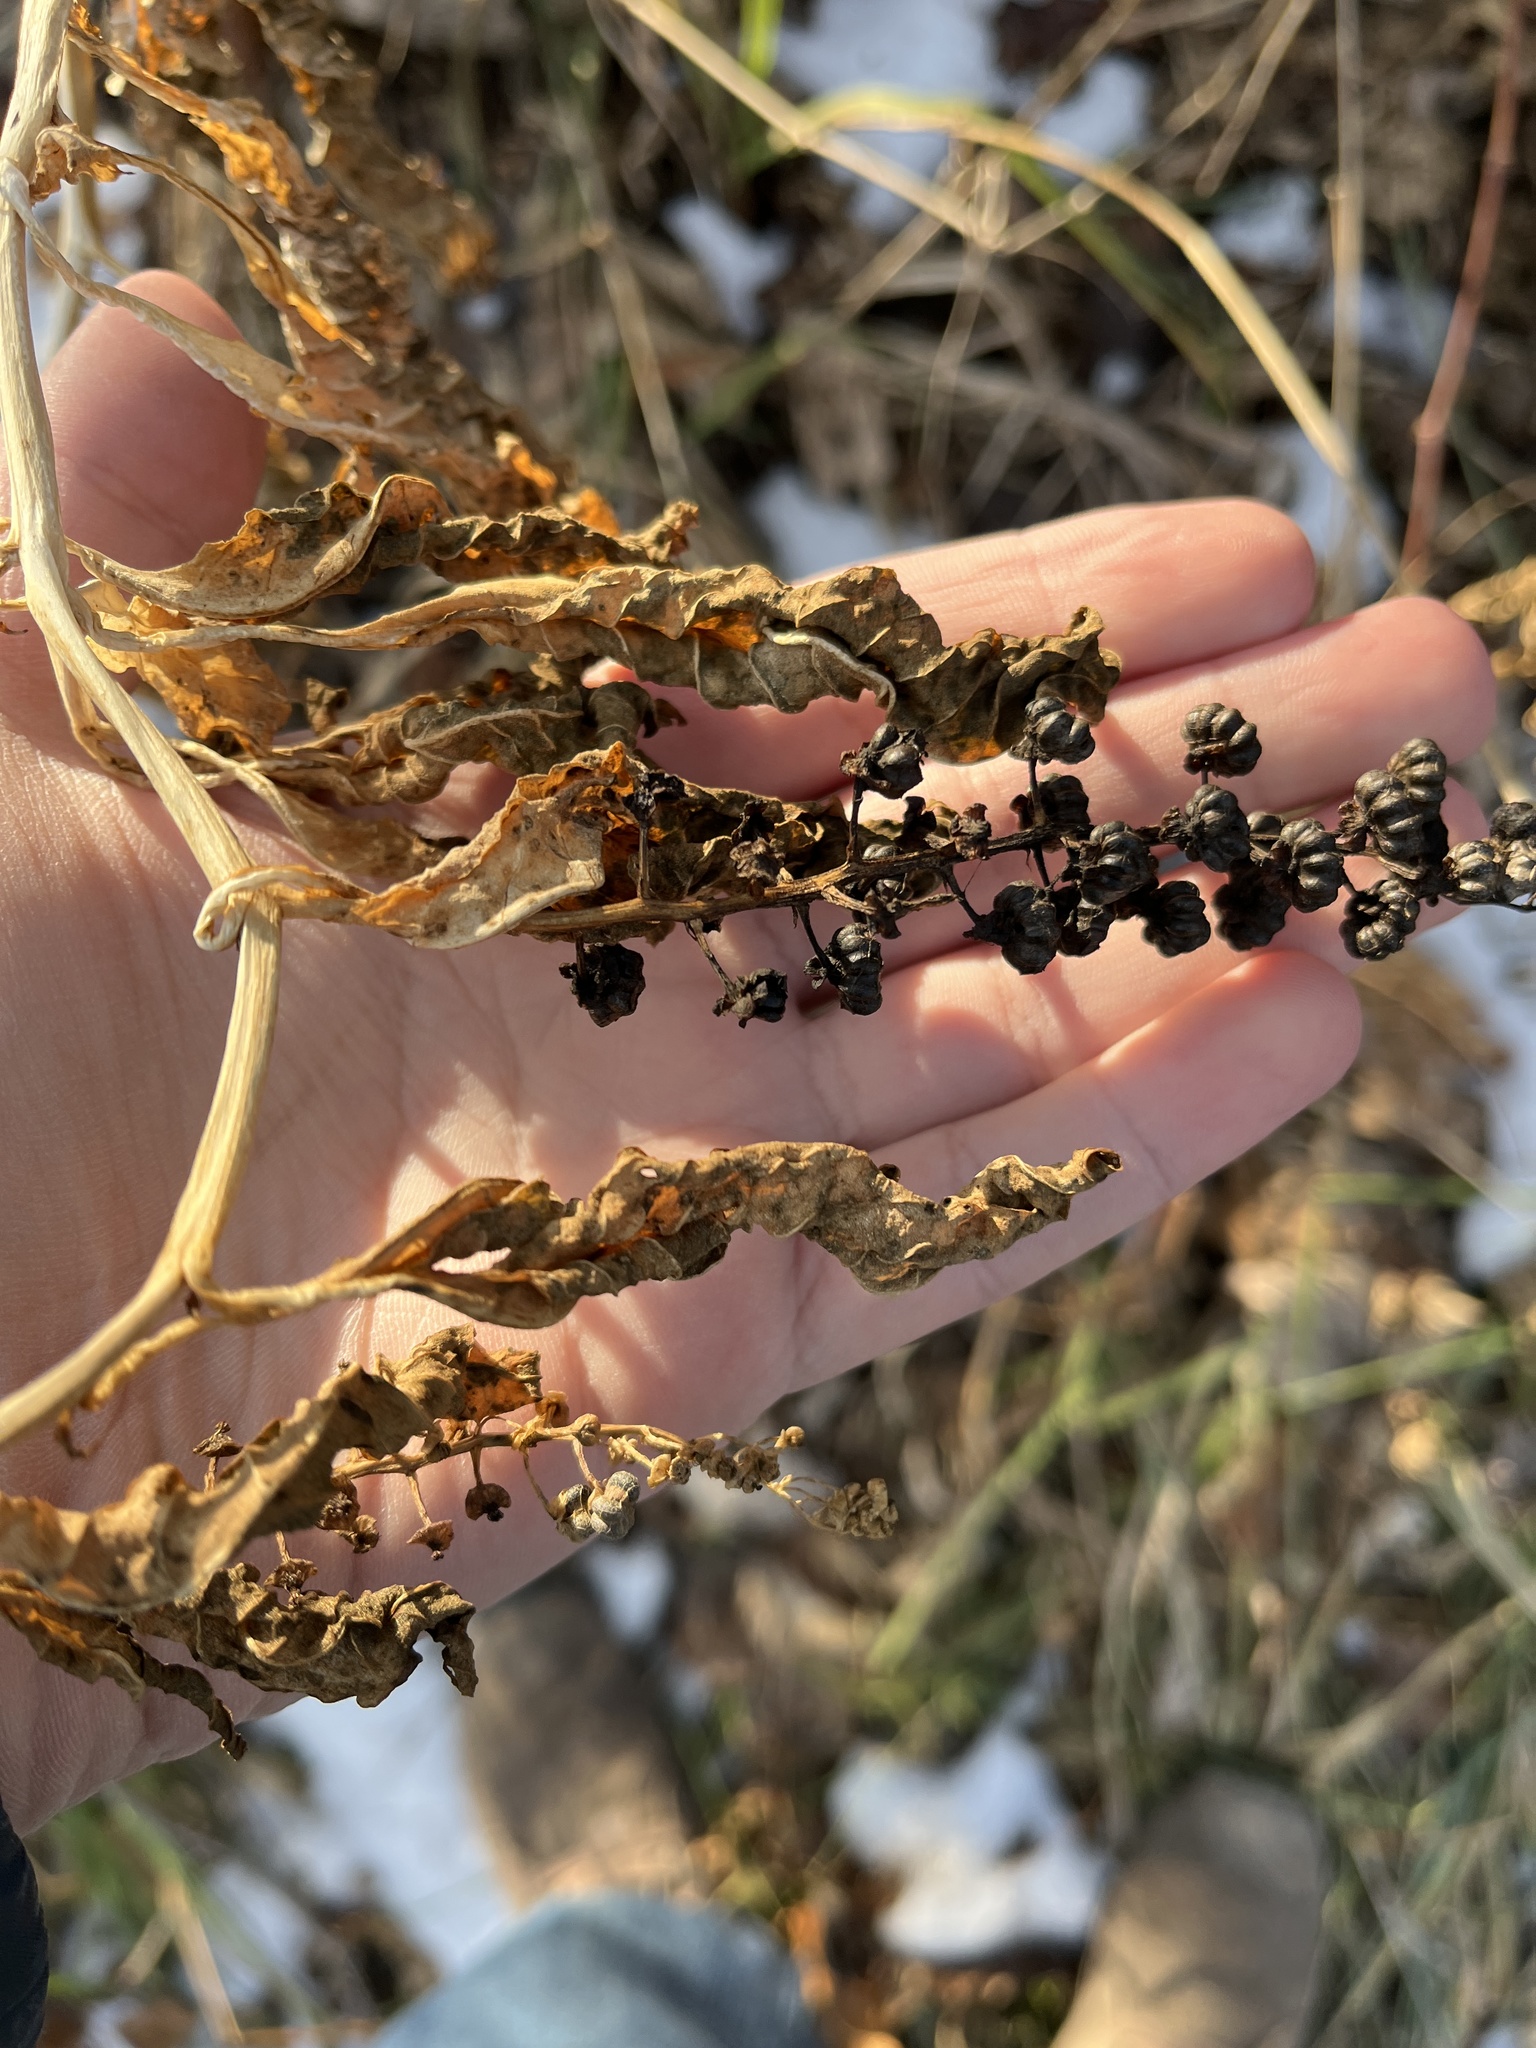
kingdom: Plantae
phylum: Tracheophyta
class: Magnoliopsida
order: Caryophyllales
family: Phytolaccaceae
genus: Phytolacca
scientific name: Phytolacca americana
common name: American pokeweed
